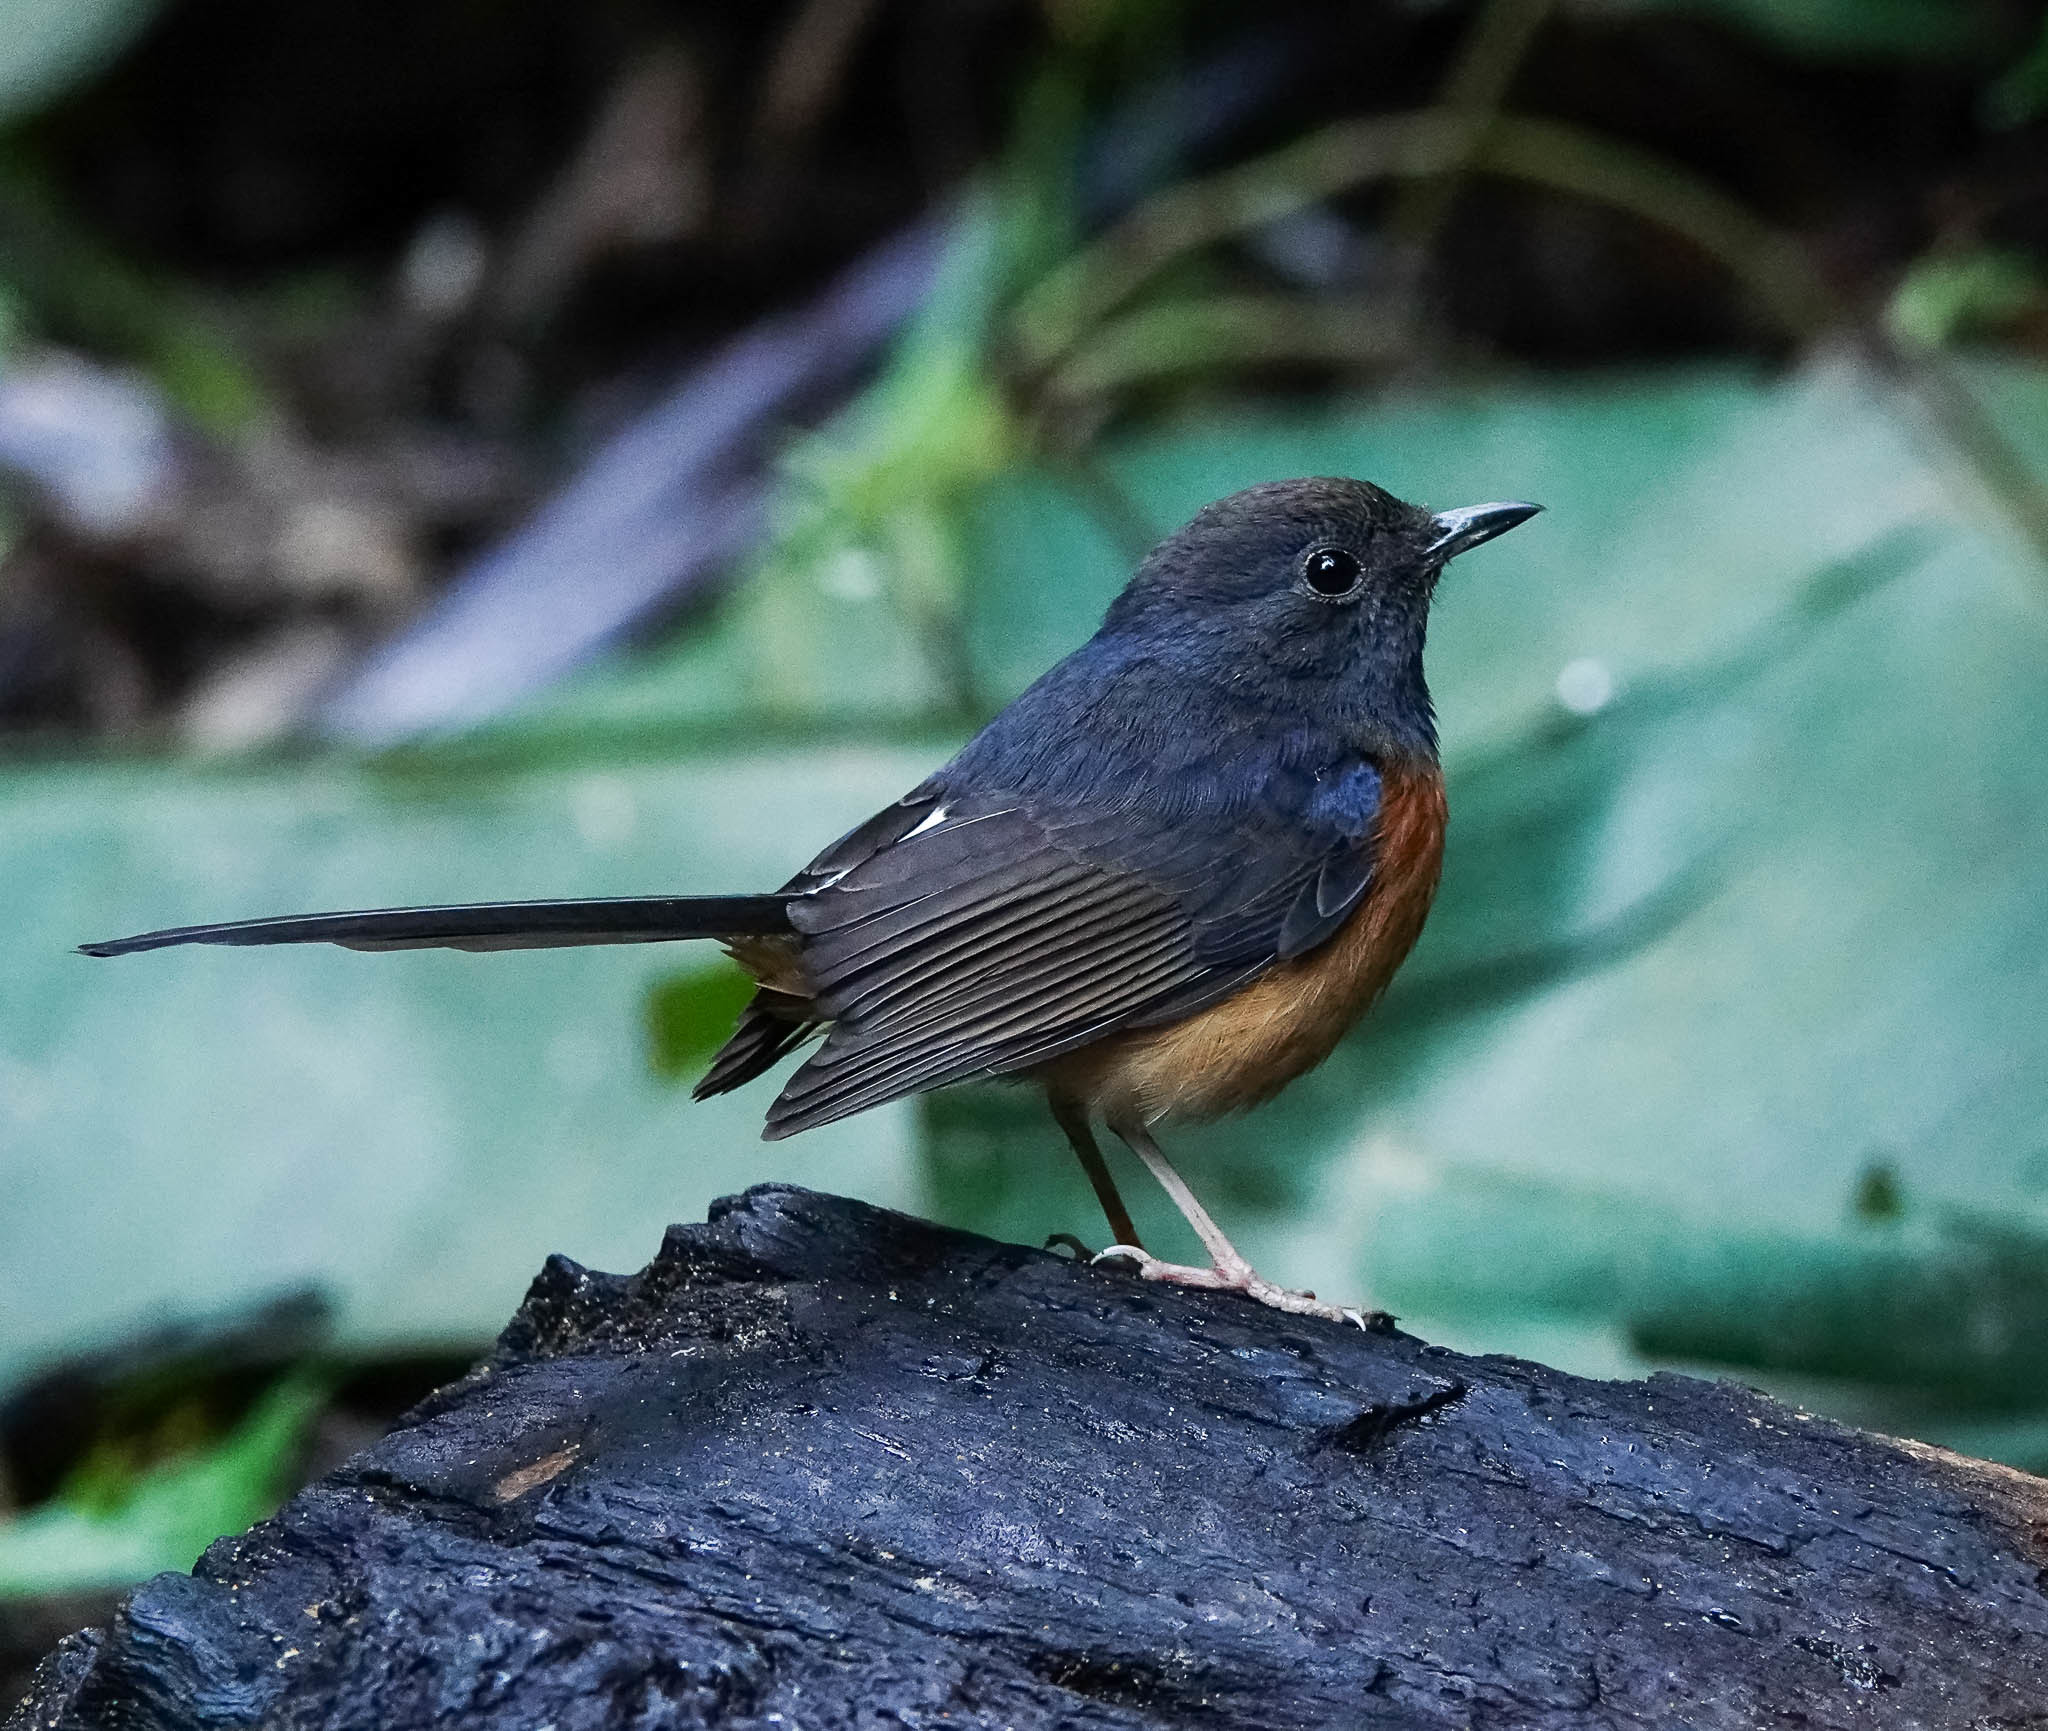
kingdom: Animalia
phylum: Chordata
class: Aves
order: Passeriformes
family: Muscicapidae
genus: Copsychus
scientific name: Copsychus malabaricus
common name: White-rumped shama
